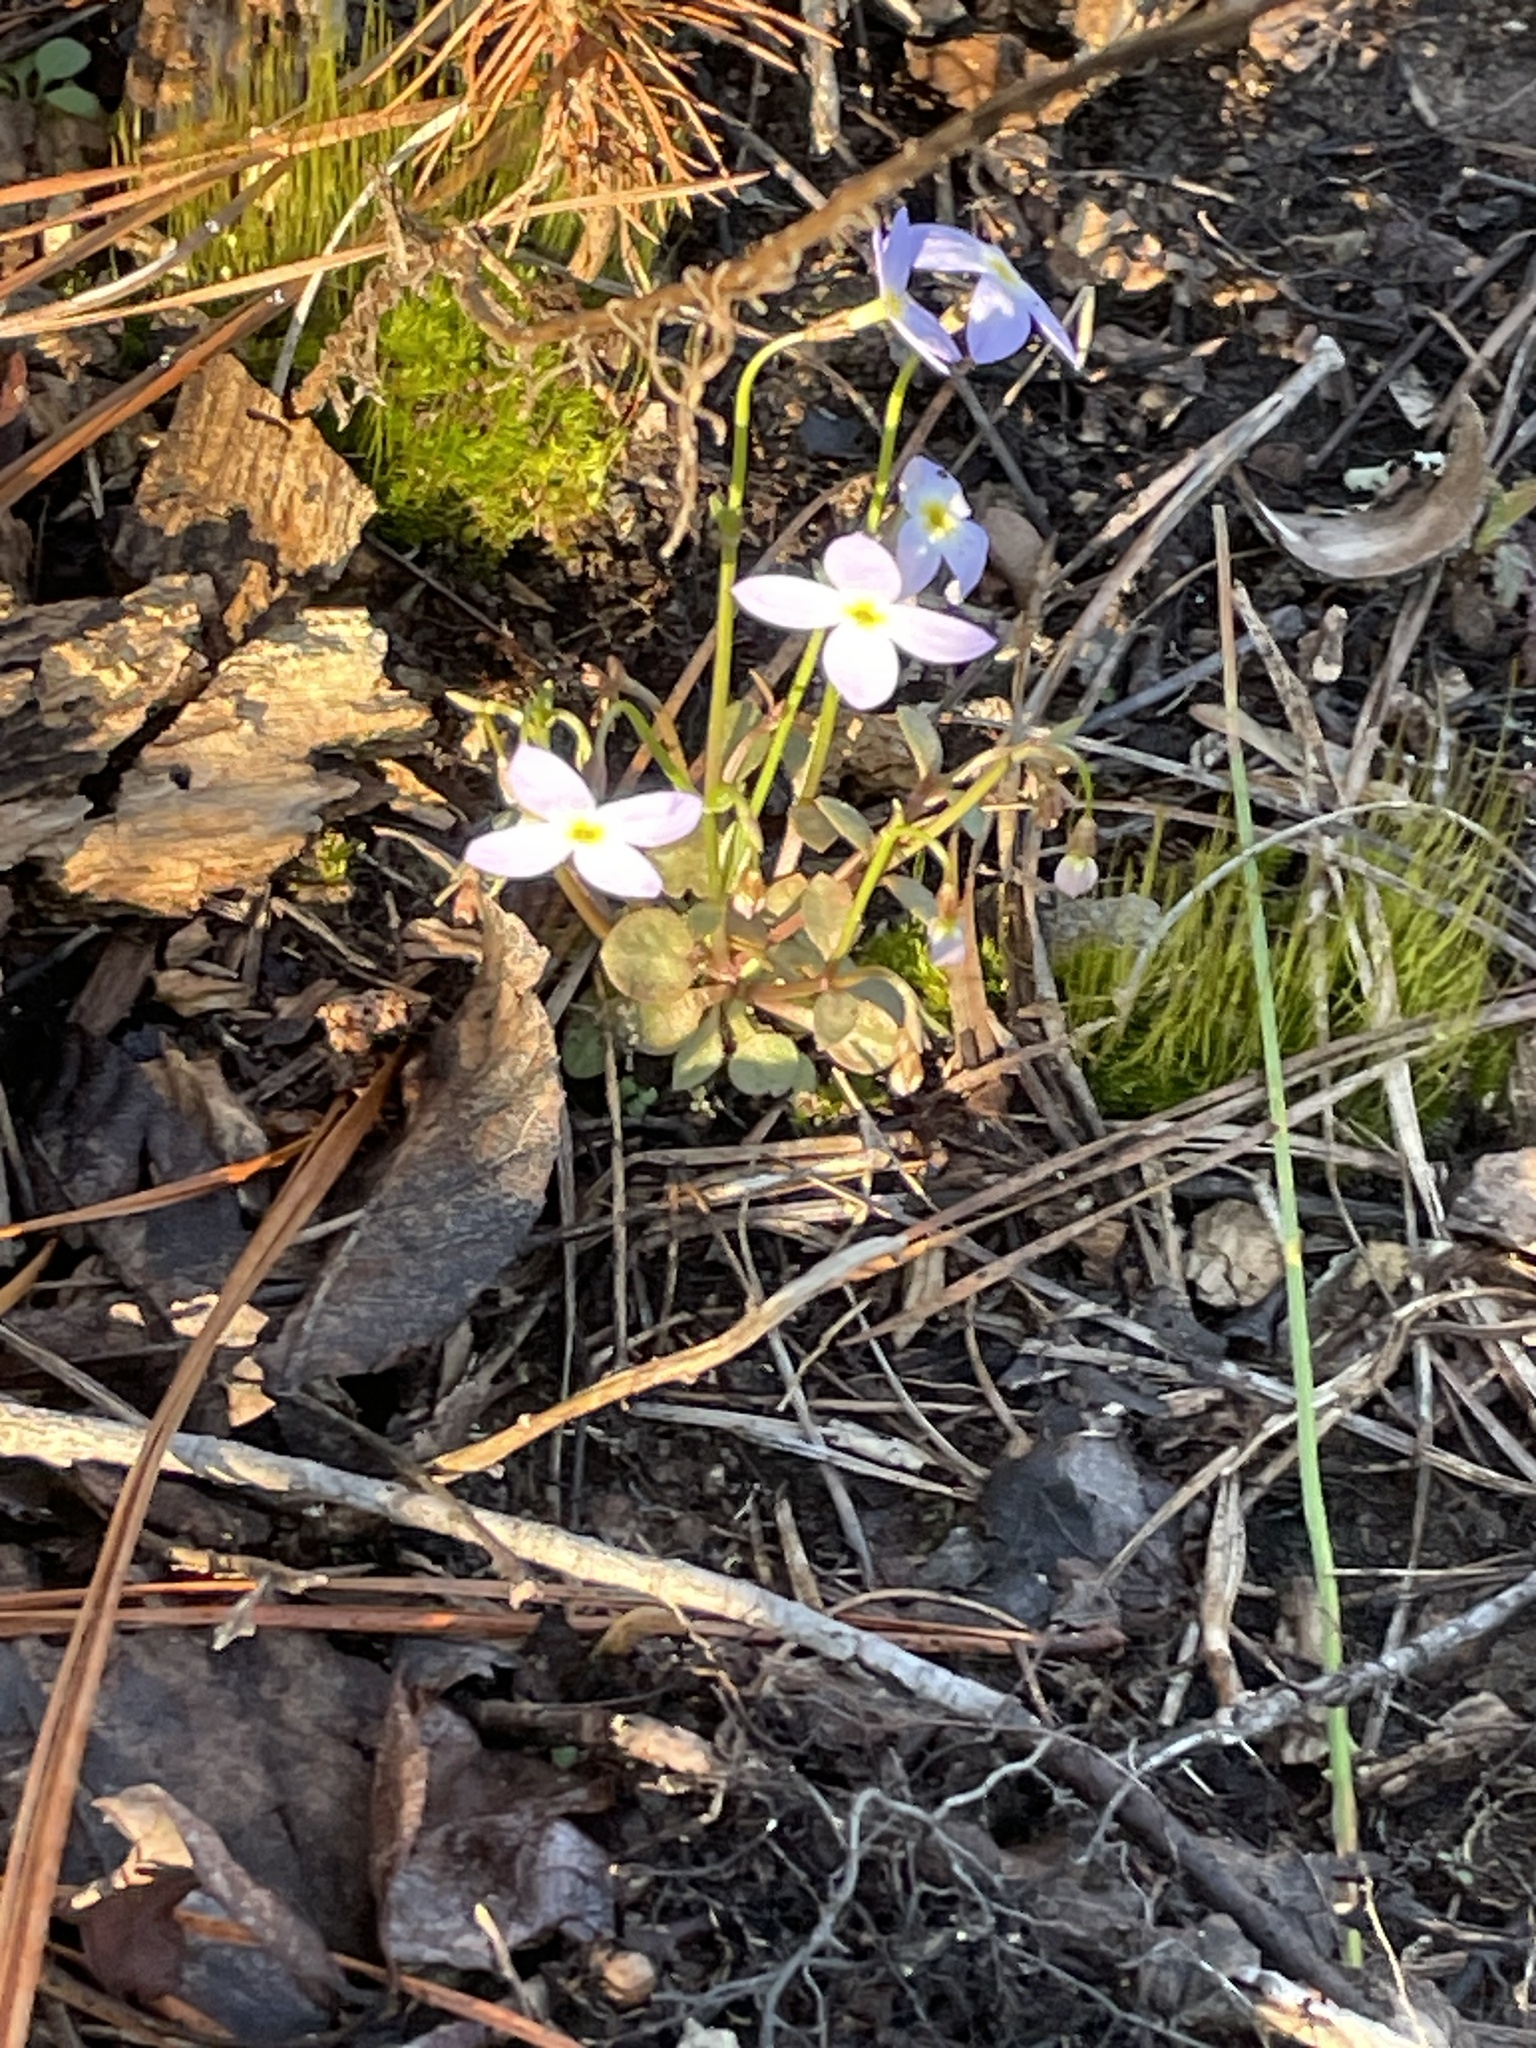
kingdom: Plantae
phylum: Tracheophyta
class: Magnoliopsida
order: Gentianales
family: Rubiaceae
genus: Houstonia
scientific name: Houstonia caerulea
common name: Bluets
